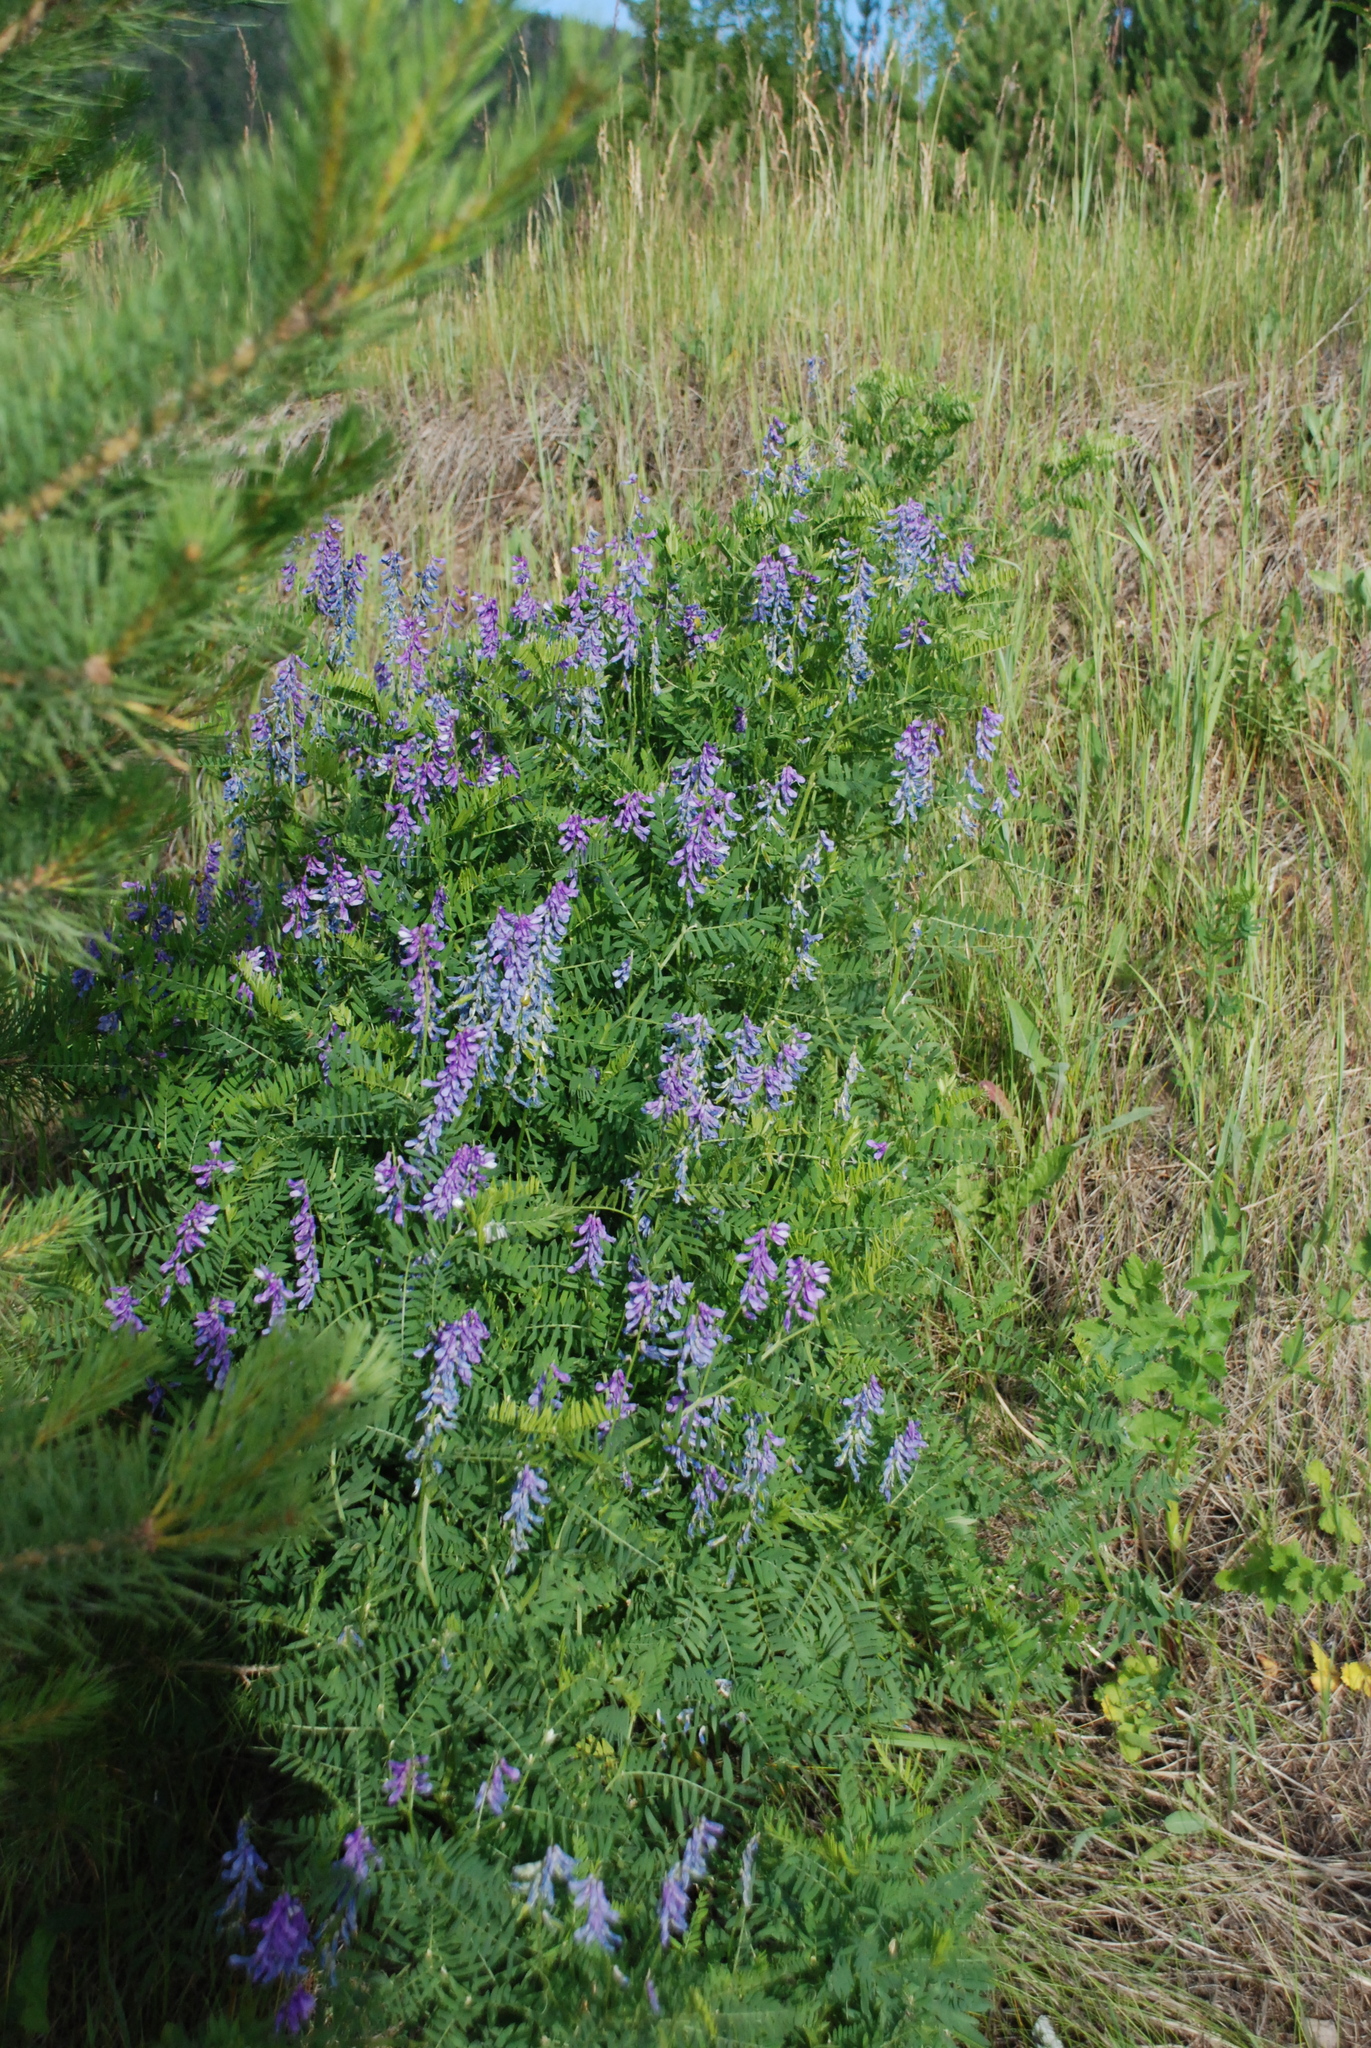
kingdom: Plantae
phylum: Tracheophyta
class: Magnoliopsida
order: Fabales
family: Fabaceae
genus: Vicia
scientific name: Vicia cracca
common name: Bird vetch
